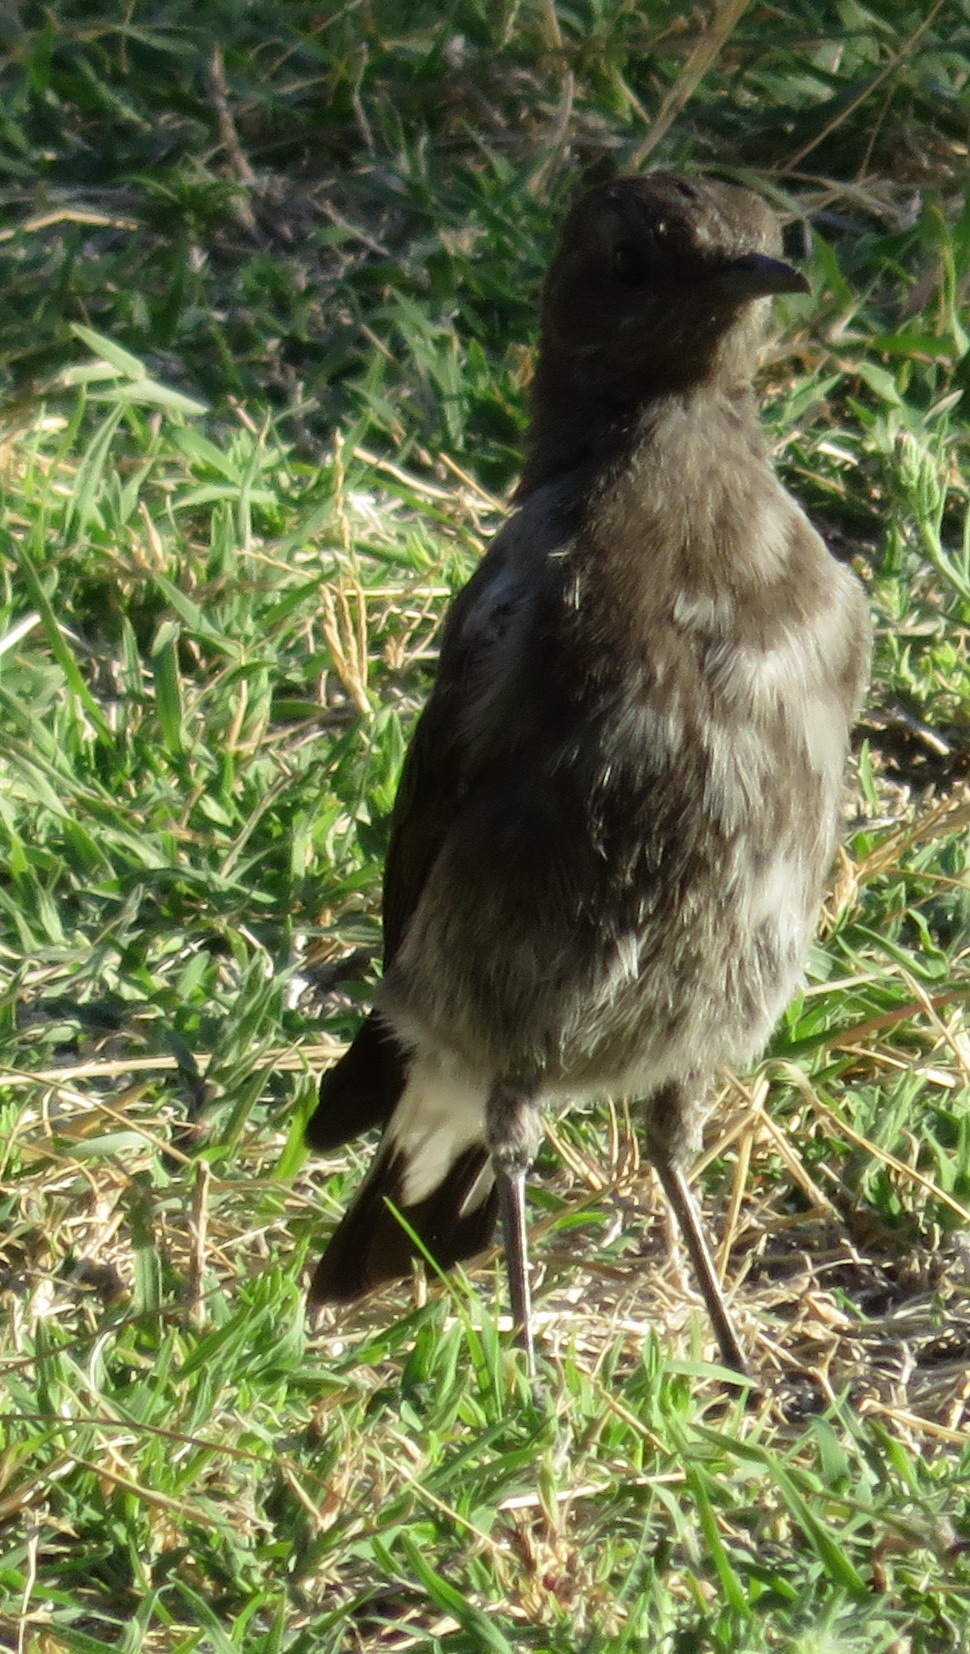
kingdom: Animalia
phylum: Chordata
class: Aves
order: Passeriformes
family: Muscicapidae
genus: Oenanthe
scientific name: Oenanthe monticola
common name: Mountain wheatear
